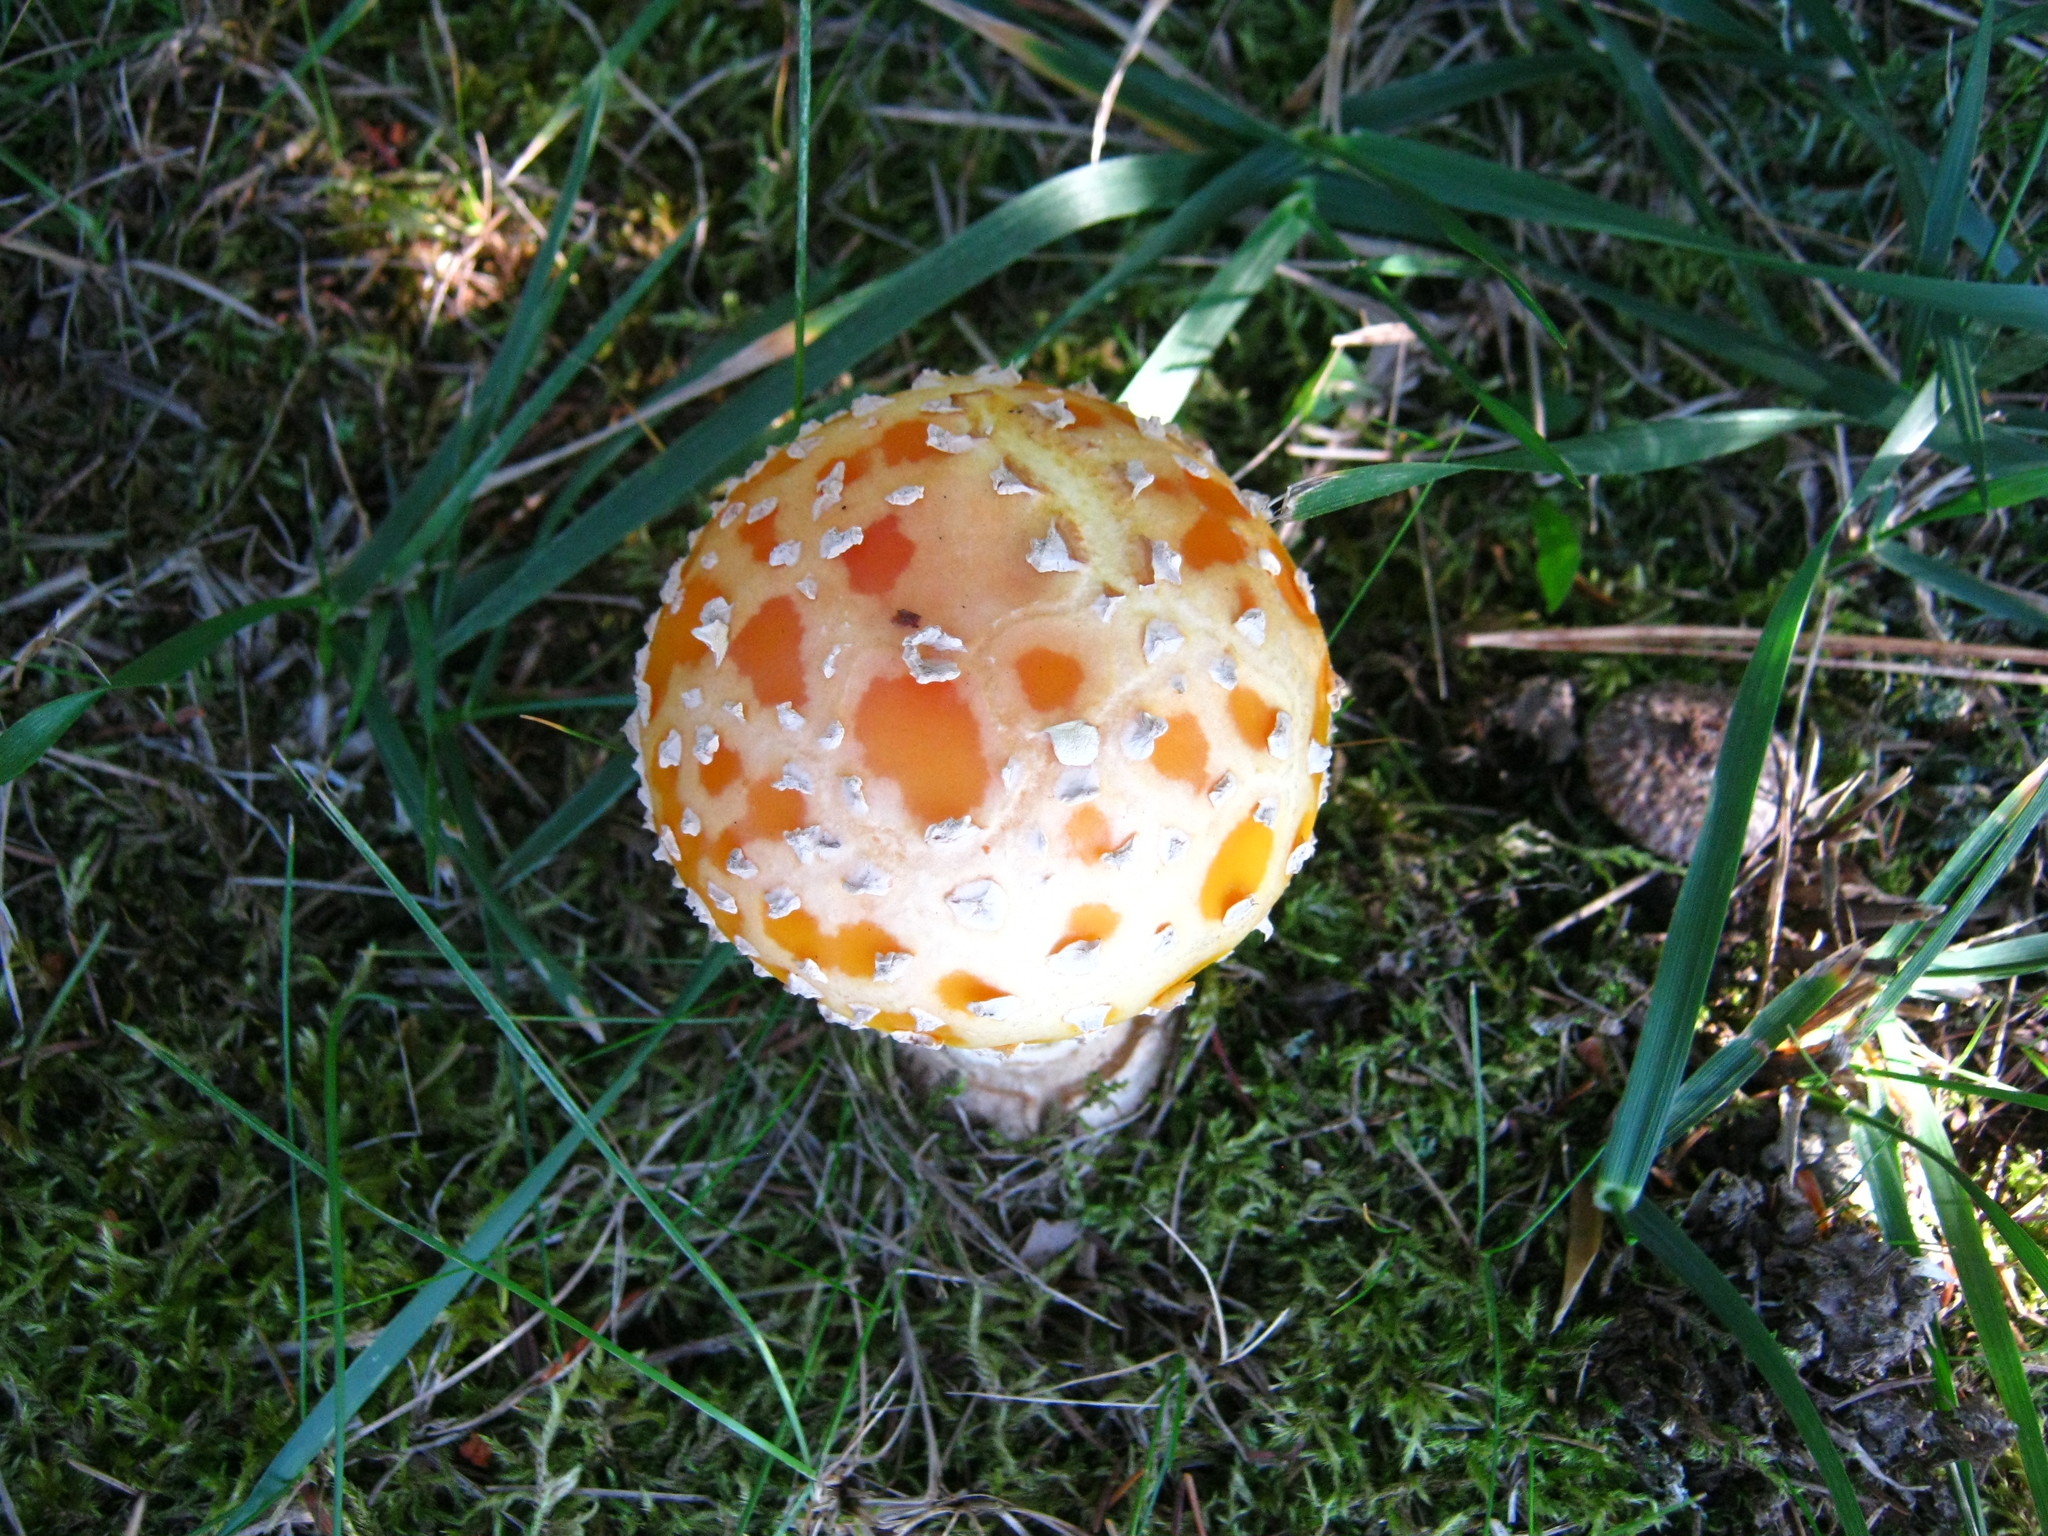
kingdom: Fungi
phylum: Basidiomycota
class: Agaricomycetes
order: Agaricales
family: Amanitaceae
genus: Amanita
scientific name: Amanita muscaria
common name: Fly agaric
